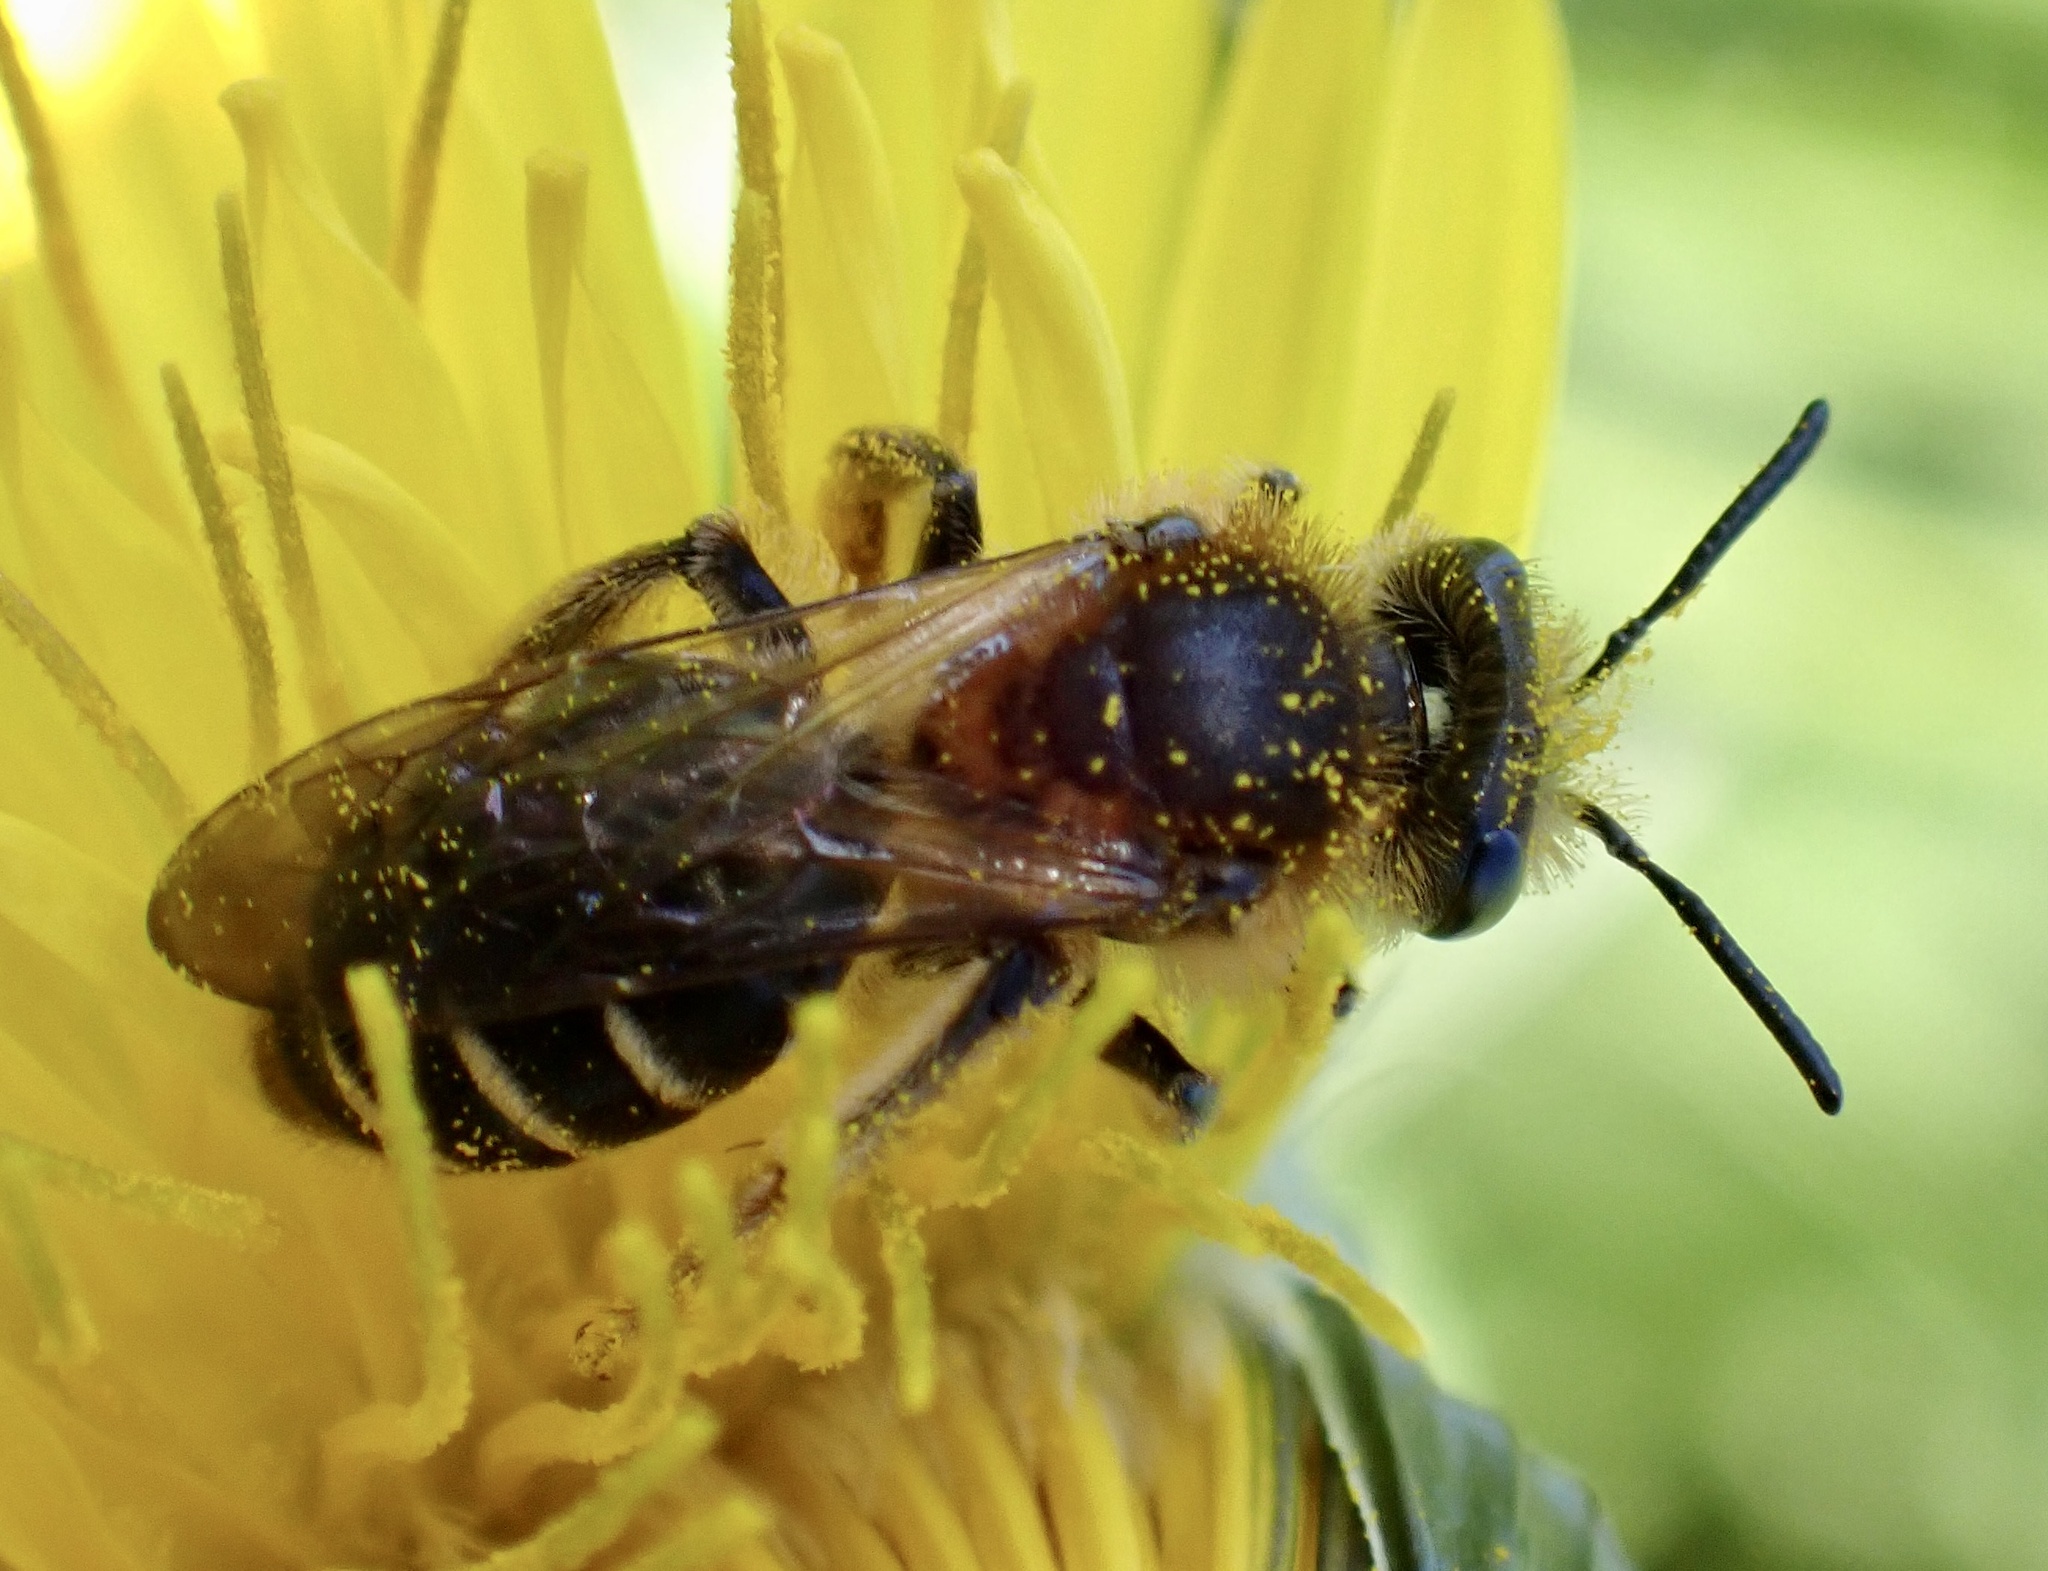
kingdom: Animalia
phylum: Arthropoda
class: Insecta
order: Hymenoptera
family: Andrenidae
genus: Andrena
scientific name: Andrena dorsata
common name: Short-fringed mining bee
